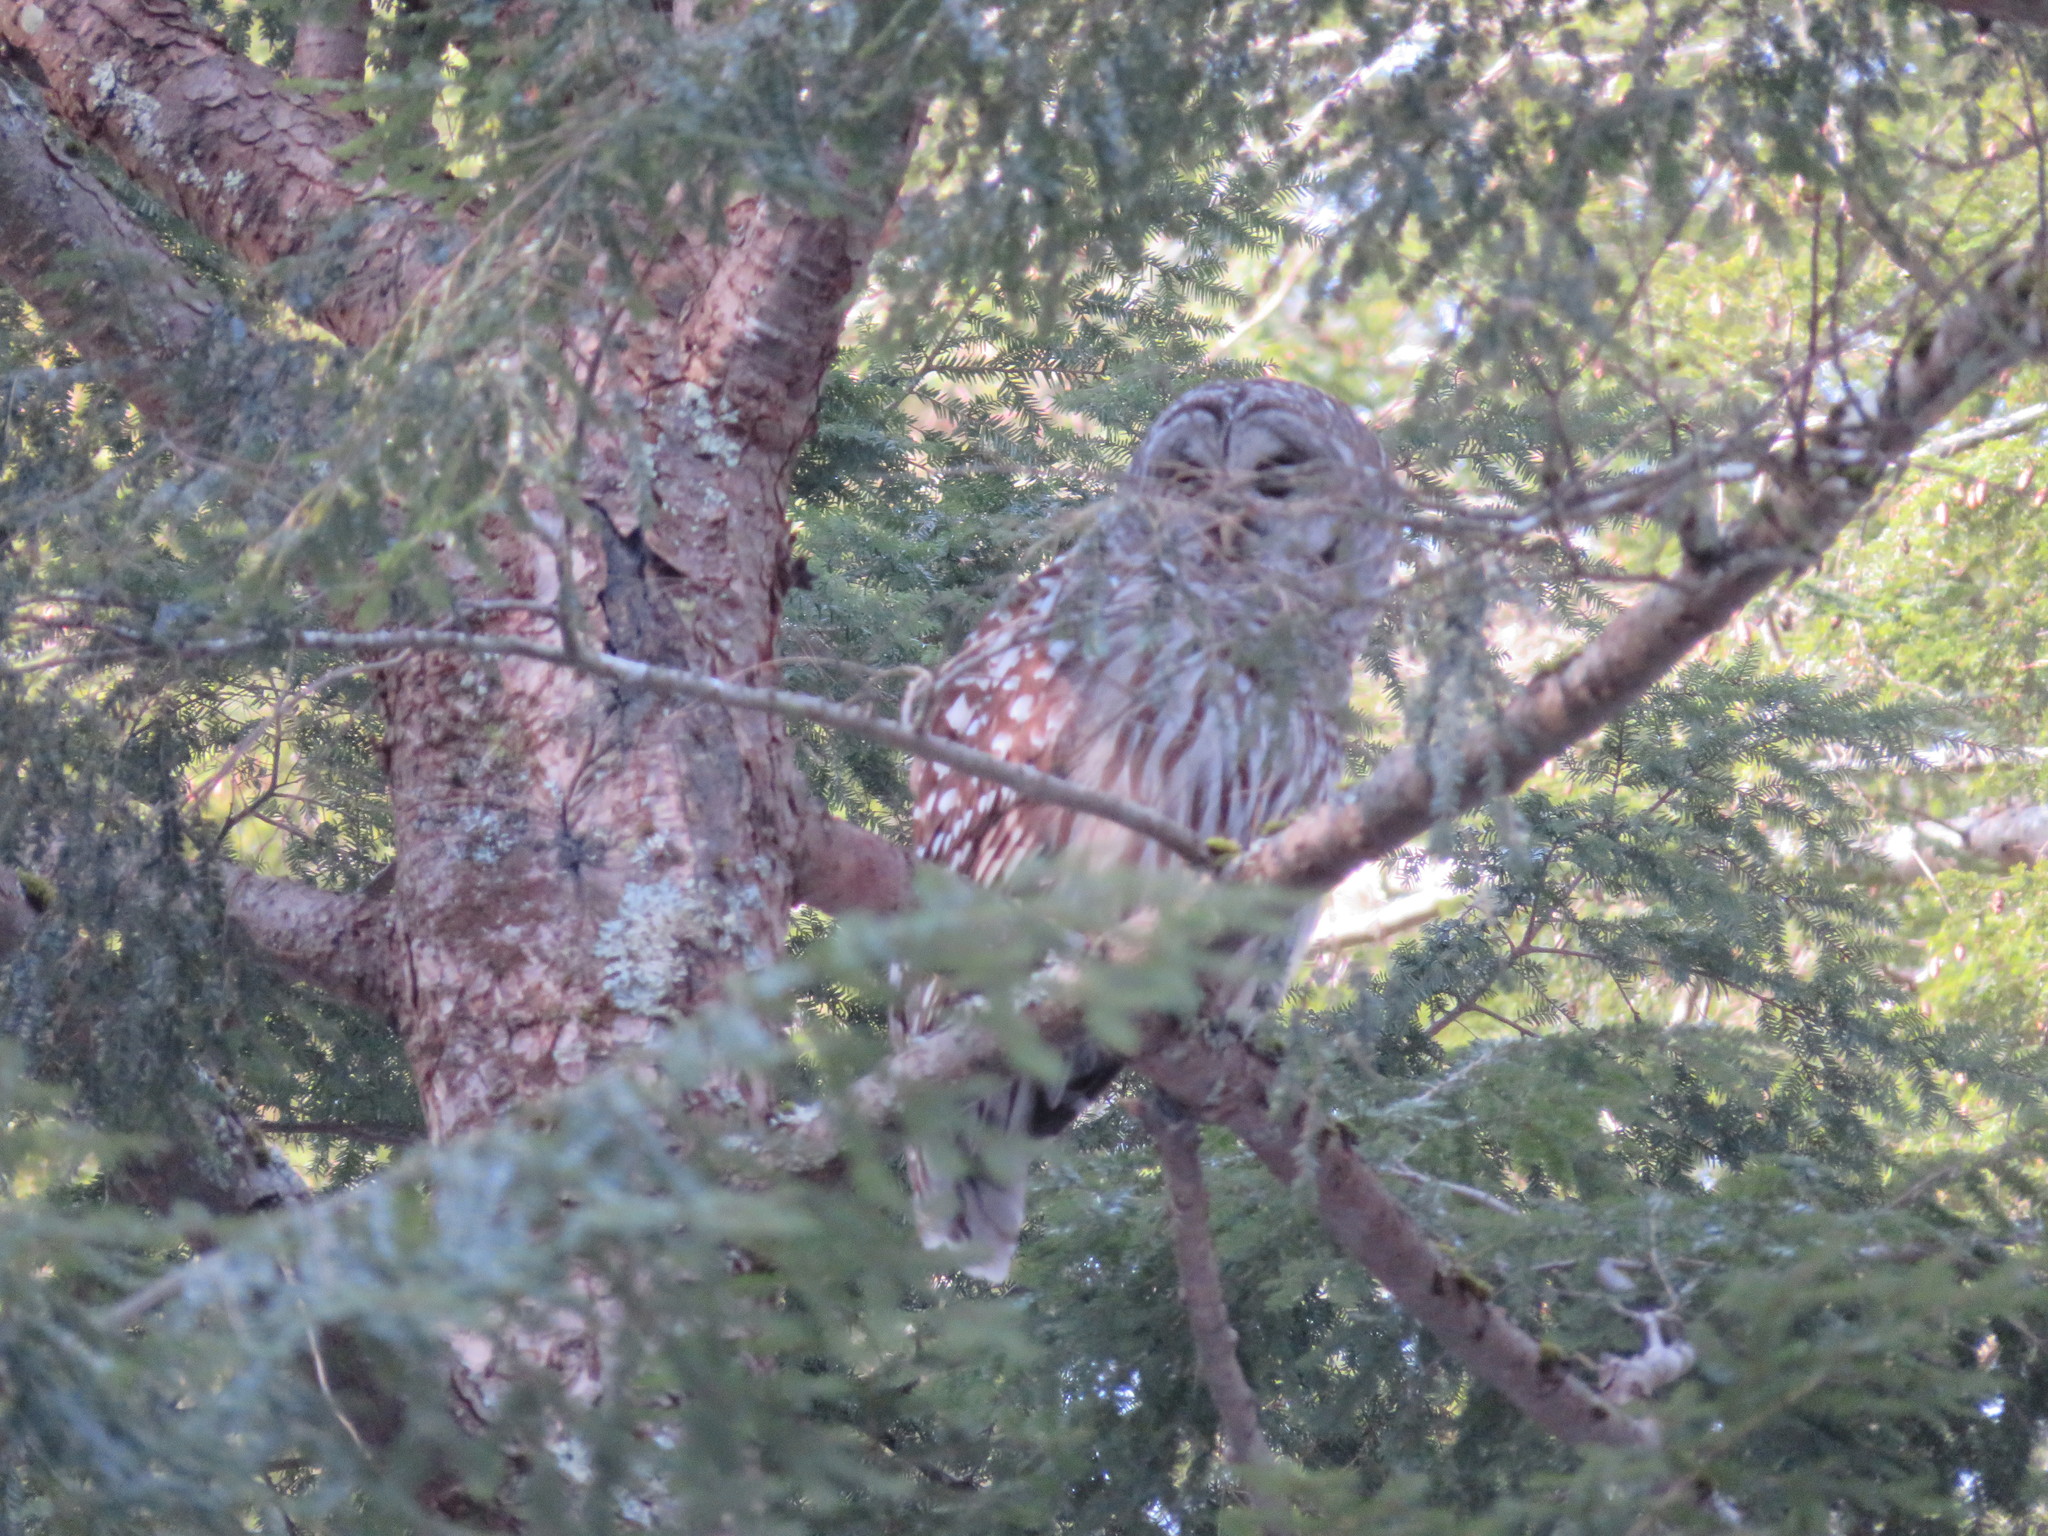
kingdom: Animalia
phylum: Chordata
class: Aves
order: Strigiformes
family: Strigidae
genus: Strix
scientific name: Strix varia
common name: Barred owl
